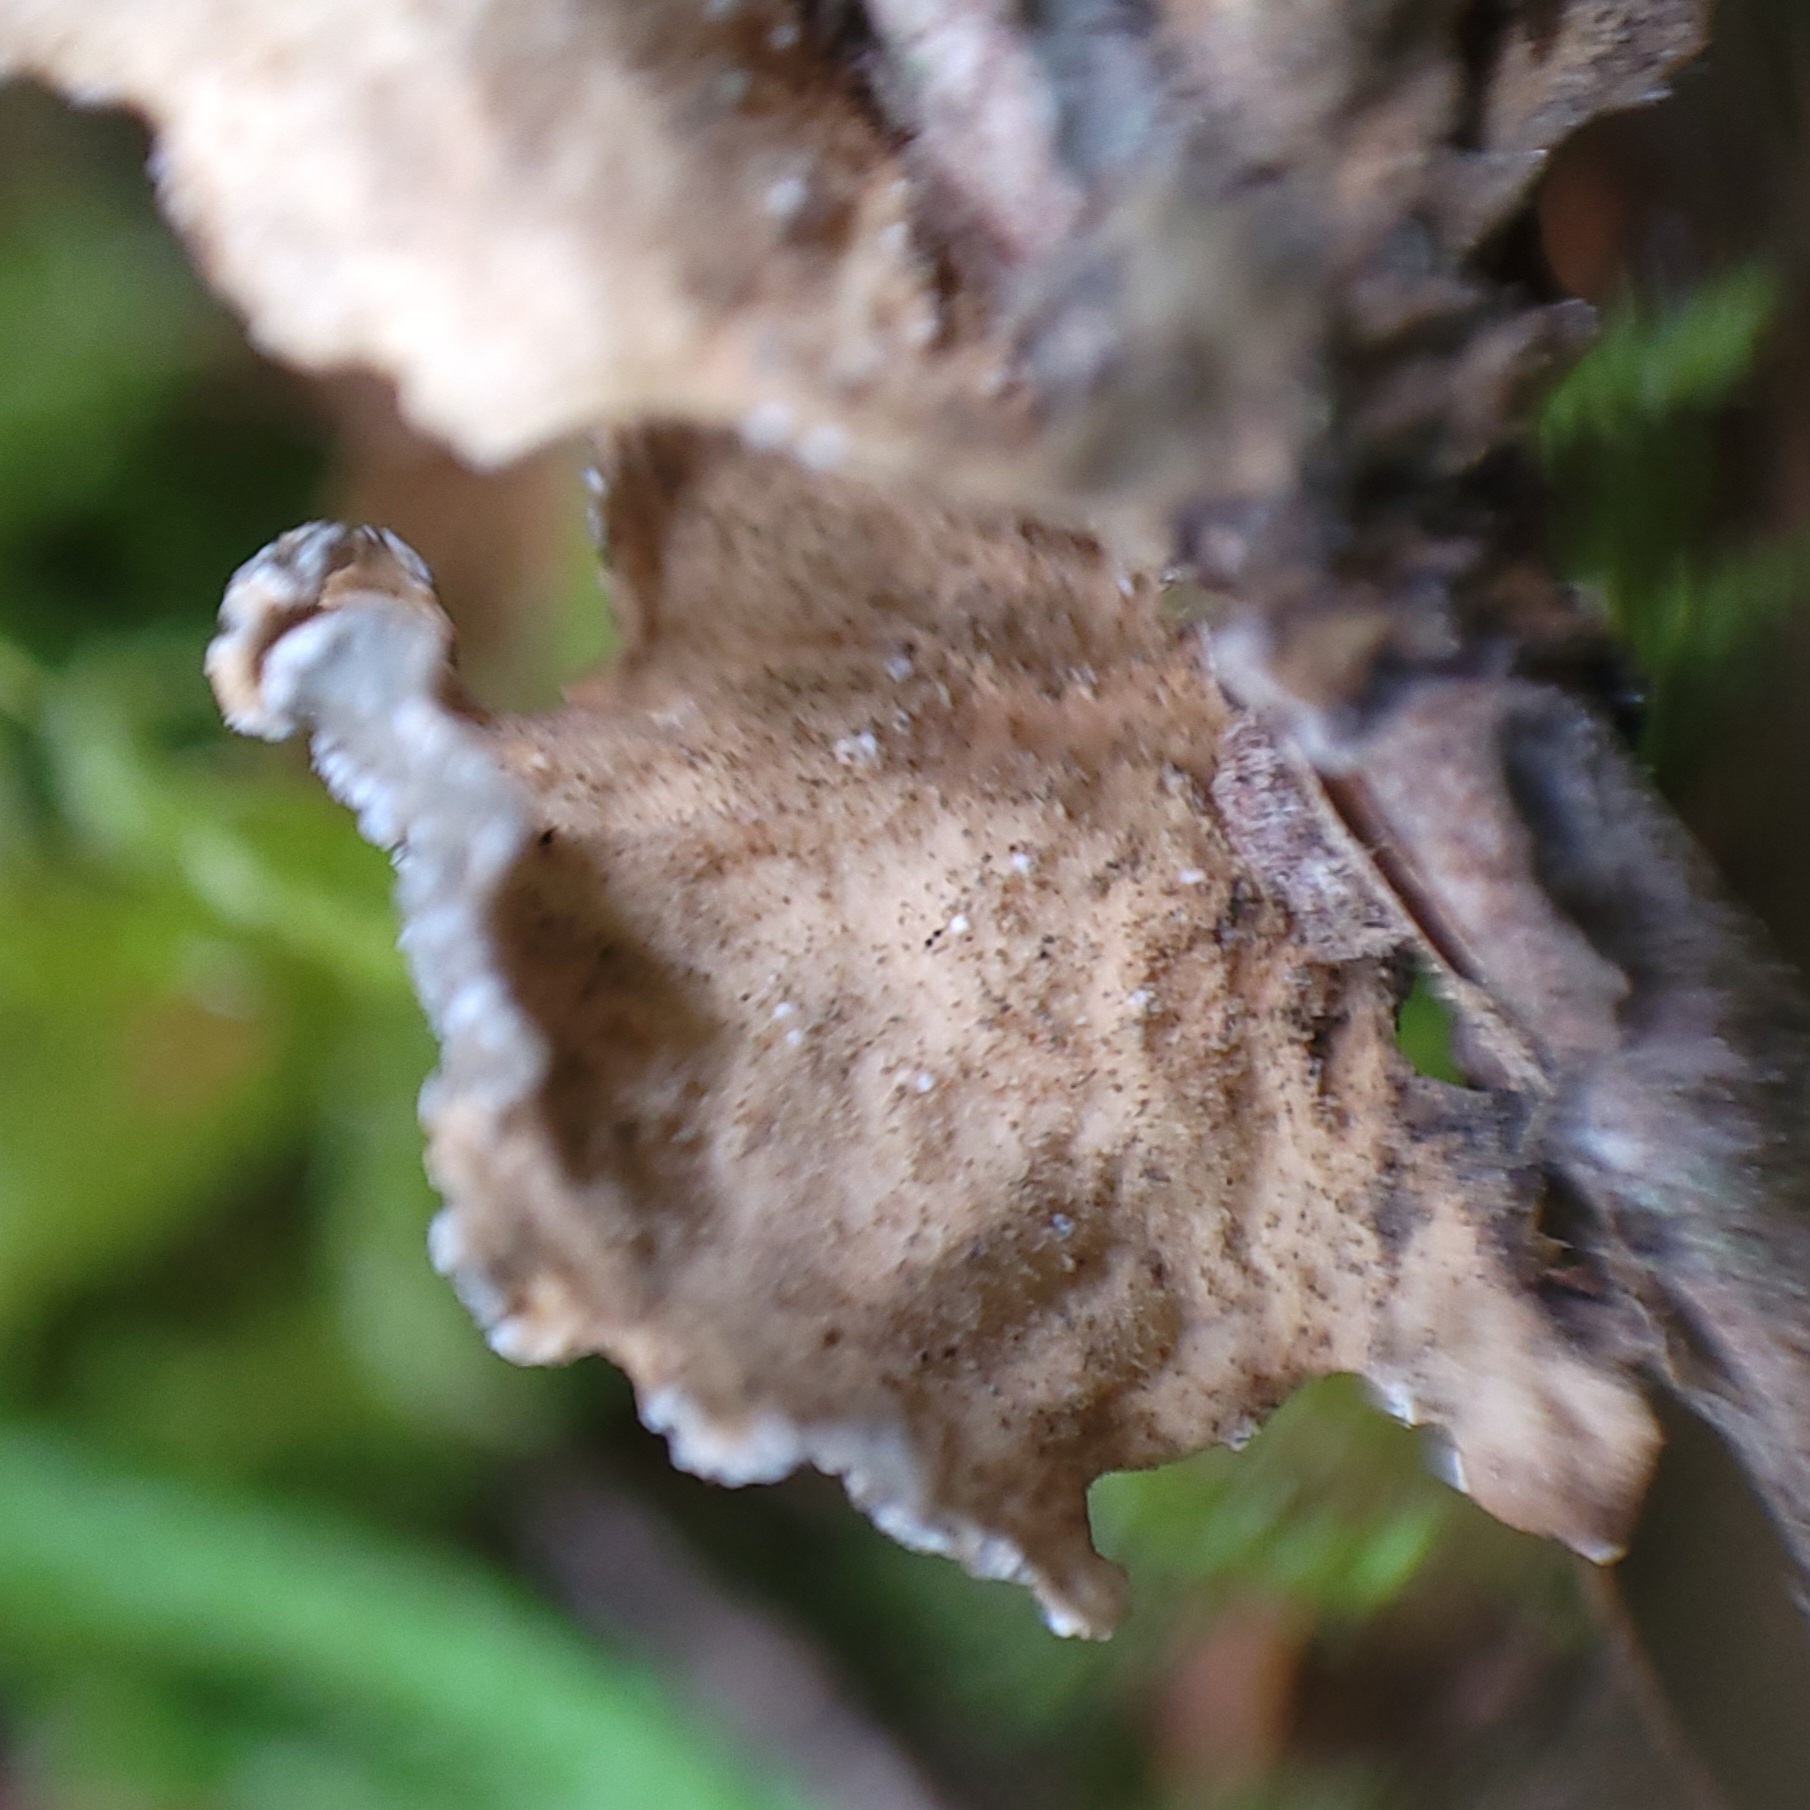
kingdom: Fungi
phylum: Ascomycota
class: Lecanoromycetes
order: Peltigerales
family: Lobariaceae
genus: Lobaria
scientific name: Lobaria anomala
